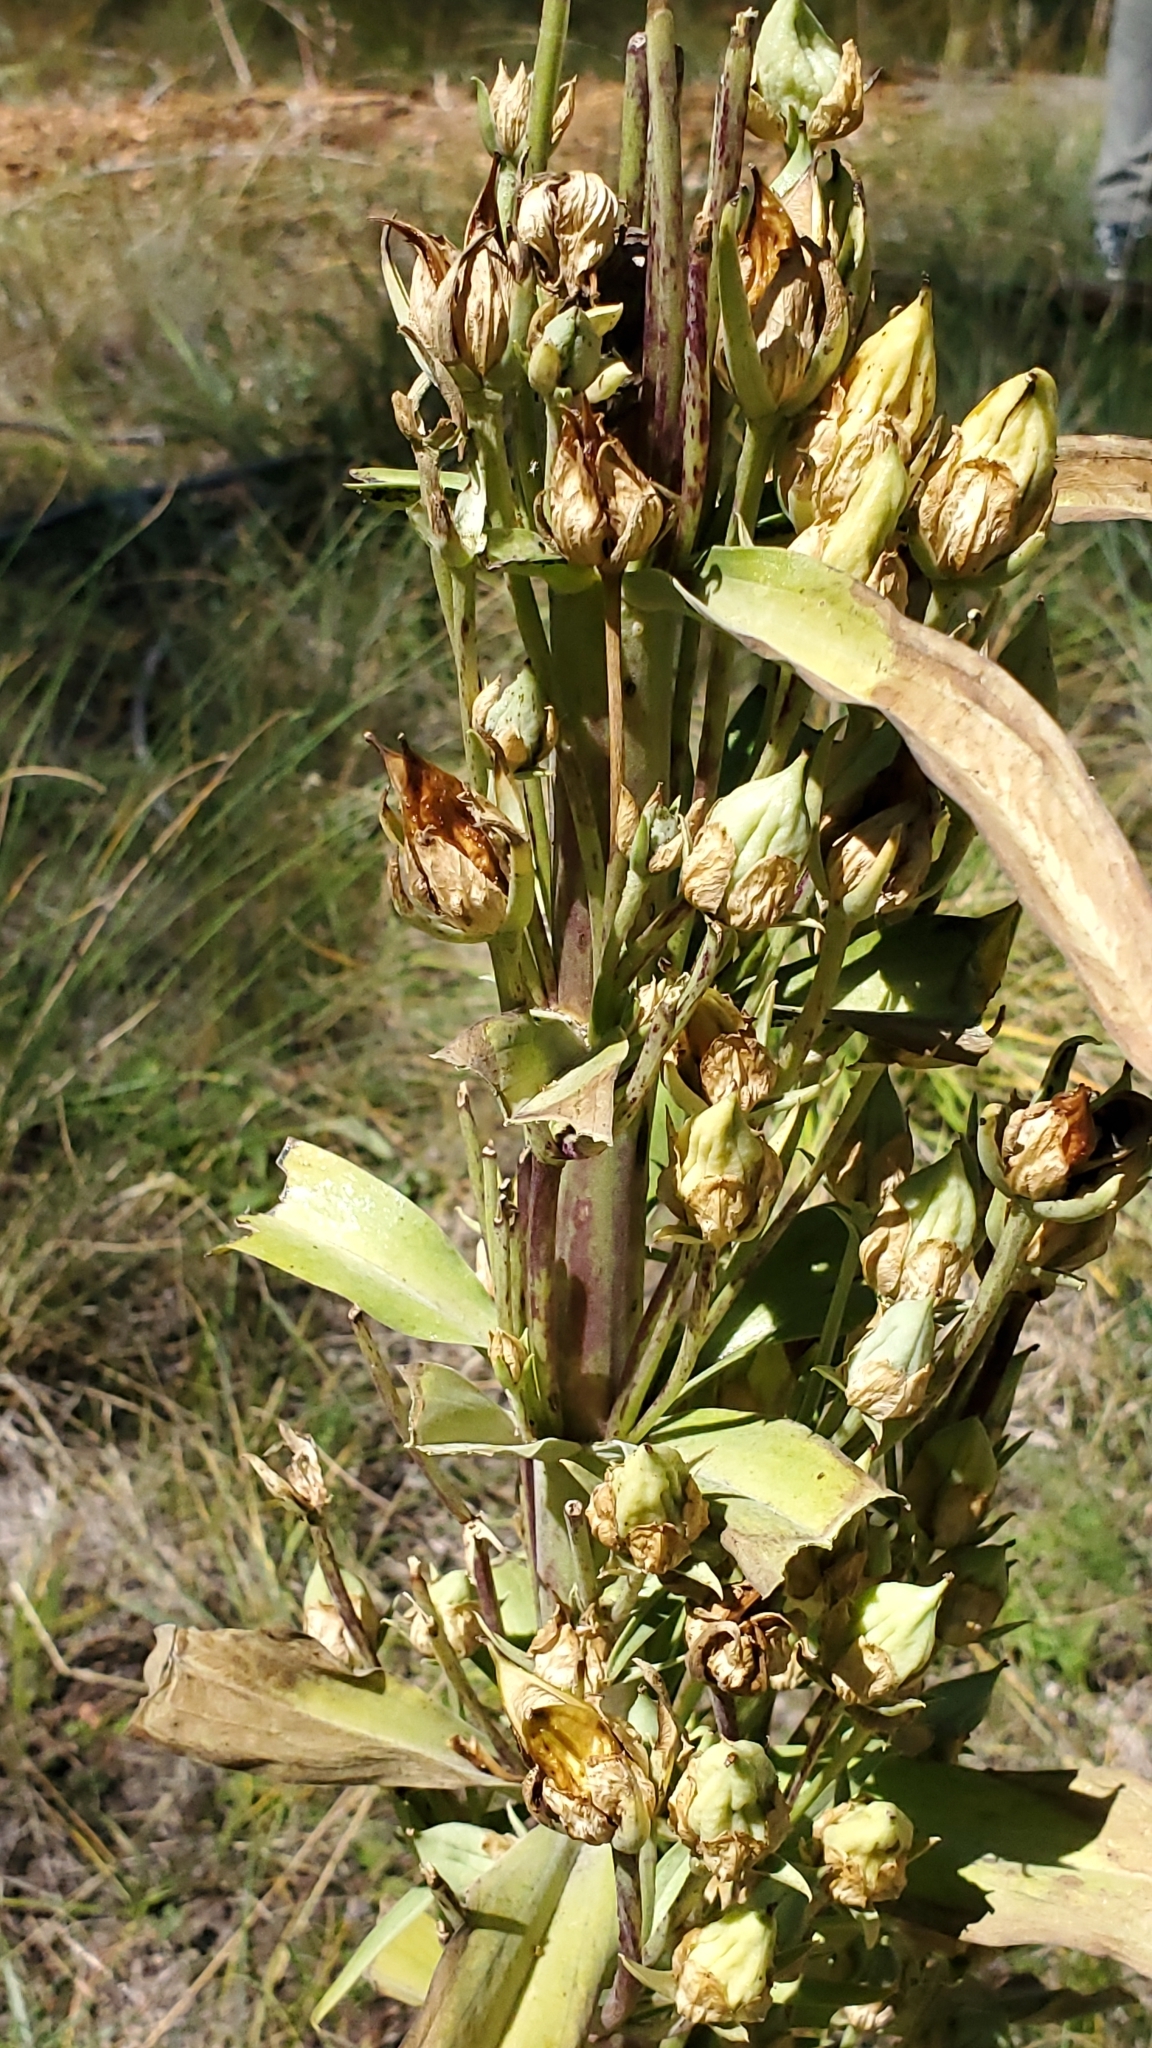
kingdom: Plantae
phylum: Tracheophyta
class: Magnoliopsida
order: Gentianales
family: Gentianaceae
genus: Frasera
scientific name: Frasera speciosa
